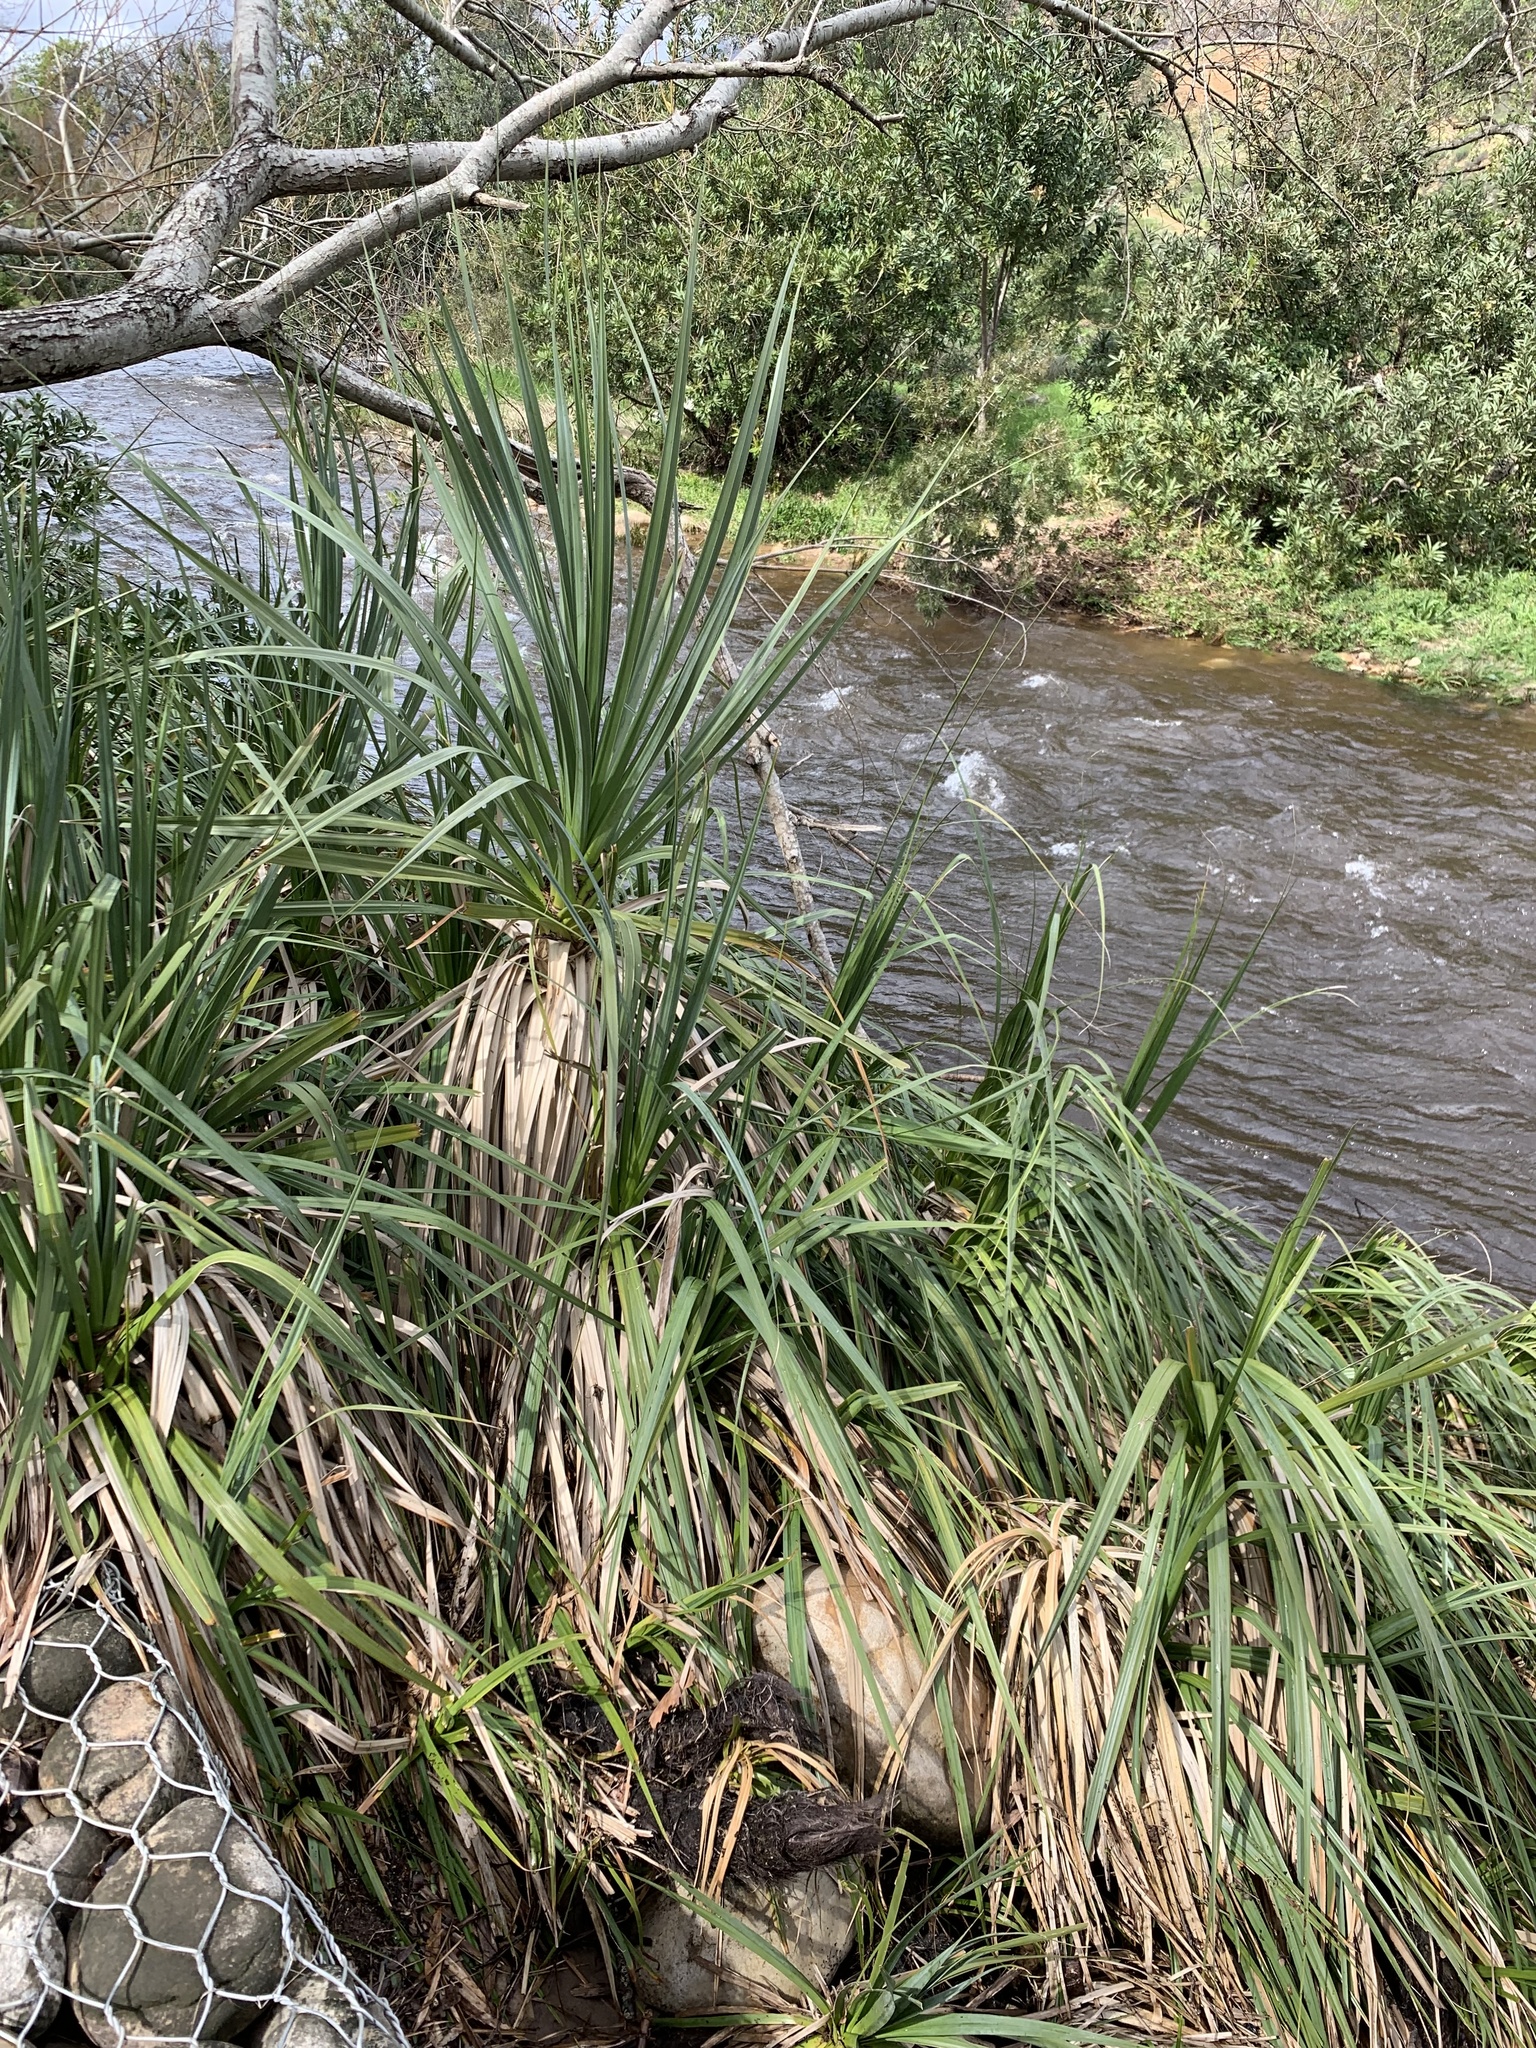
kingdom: Plantae
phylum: Tracheophyta
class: Liliopsida
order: Poales
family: Thurniaceae
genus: Prionium
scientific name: Prionium serratum
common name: Palmiet
